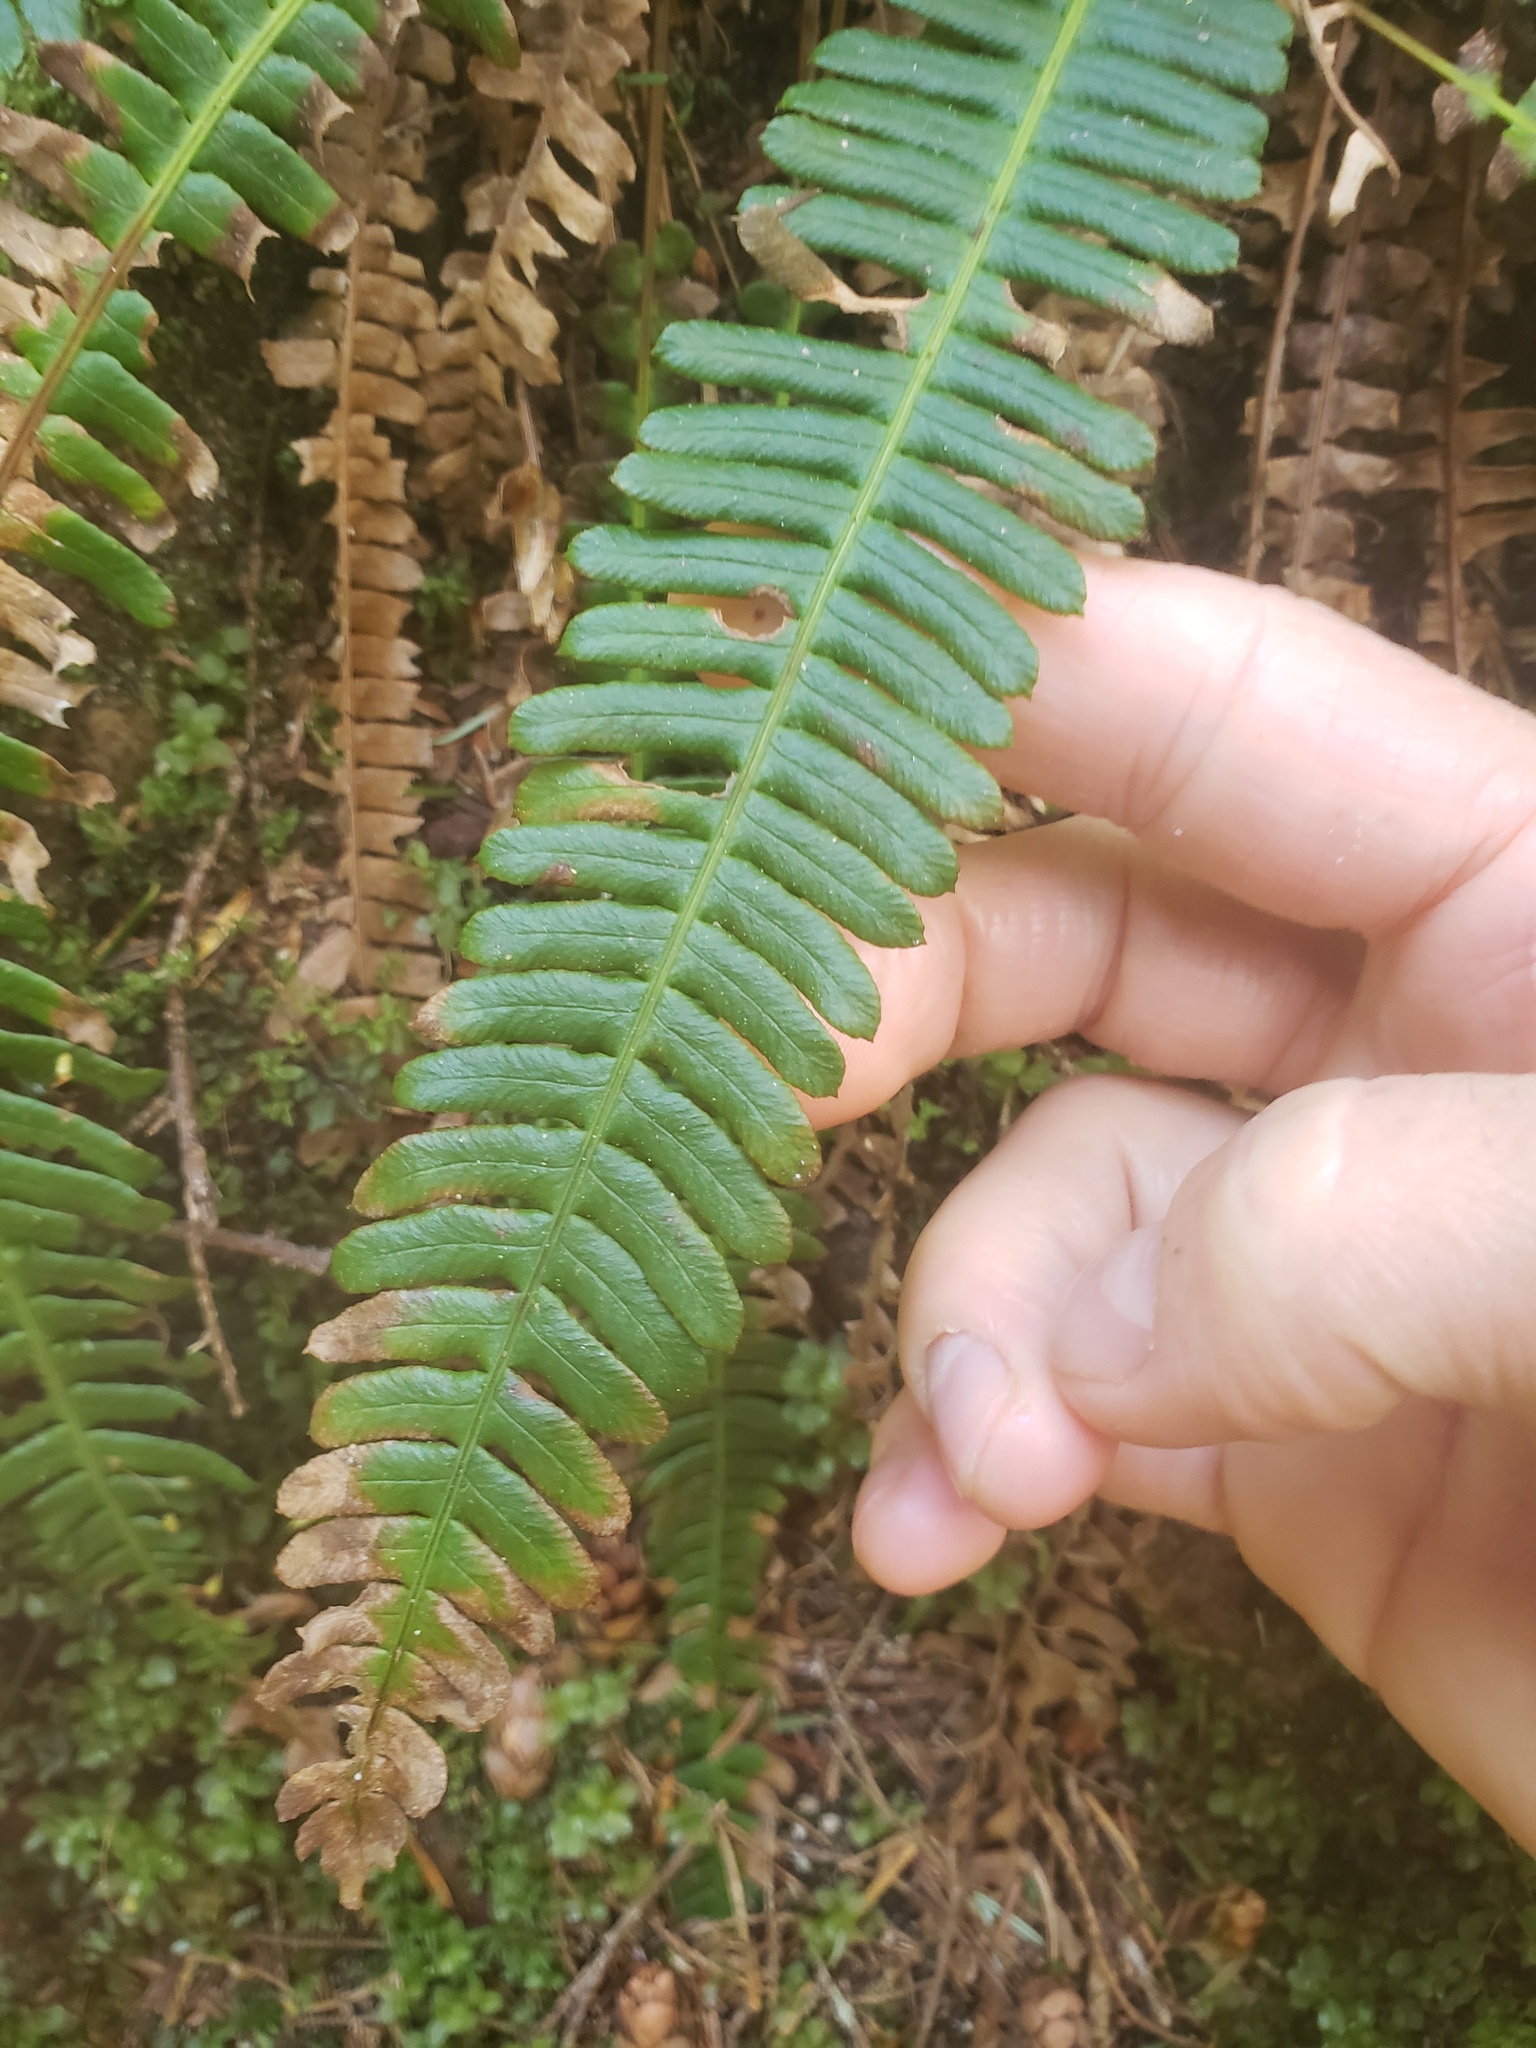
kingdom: Plantae
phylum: Tracheophyta
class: Polypodiopsida
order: Polypodiales
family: Blechnaceae
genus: Struthiopteris
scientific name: Struthiopteris spicant
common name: Deer fern
